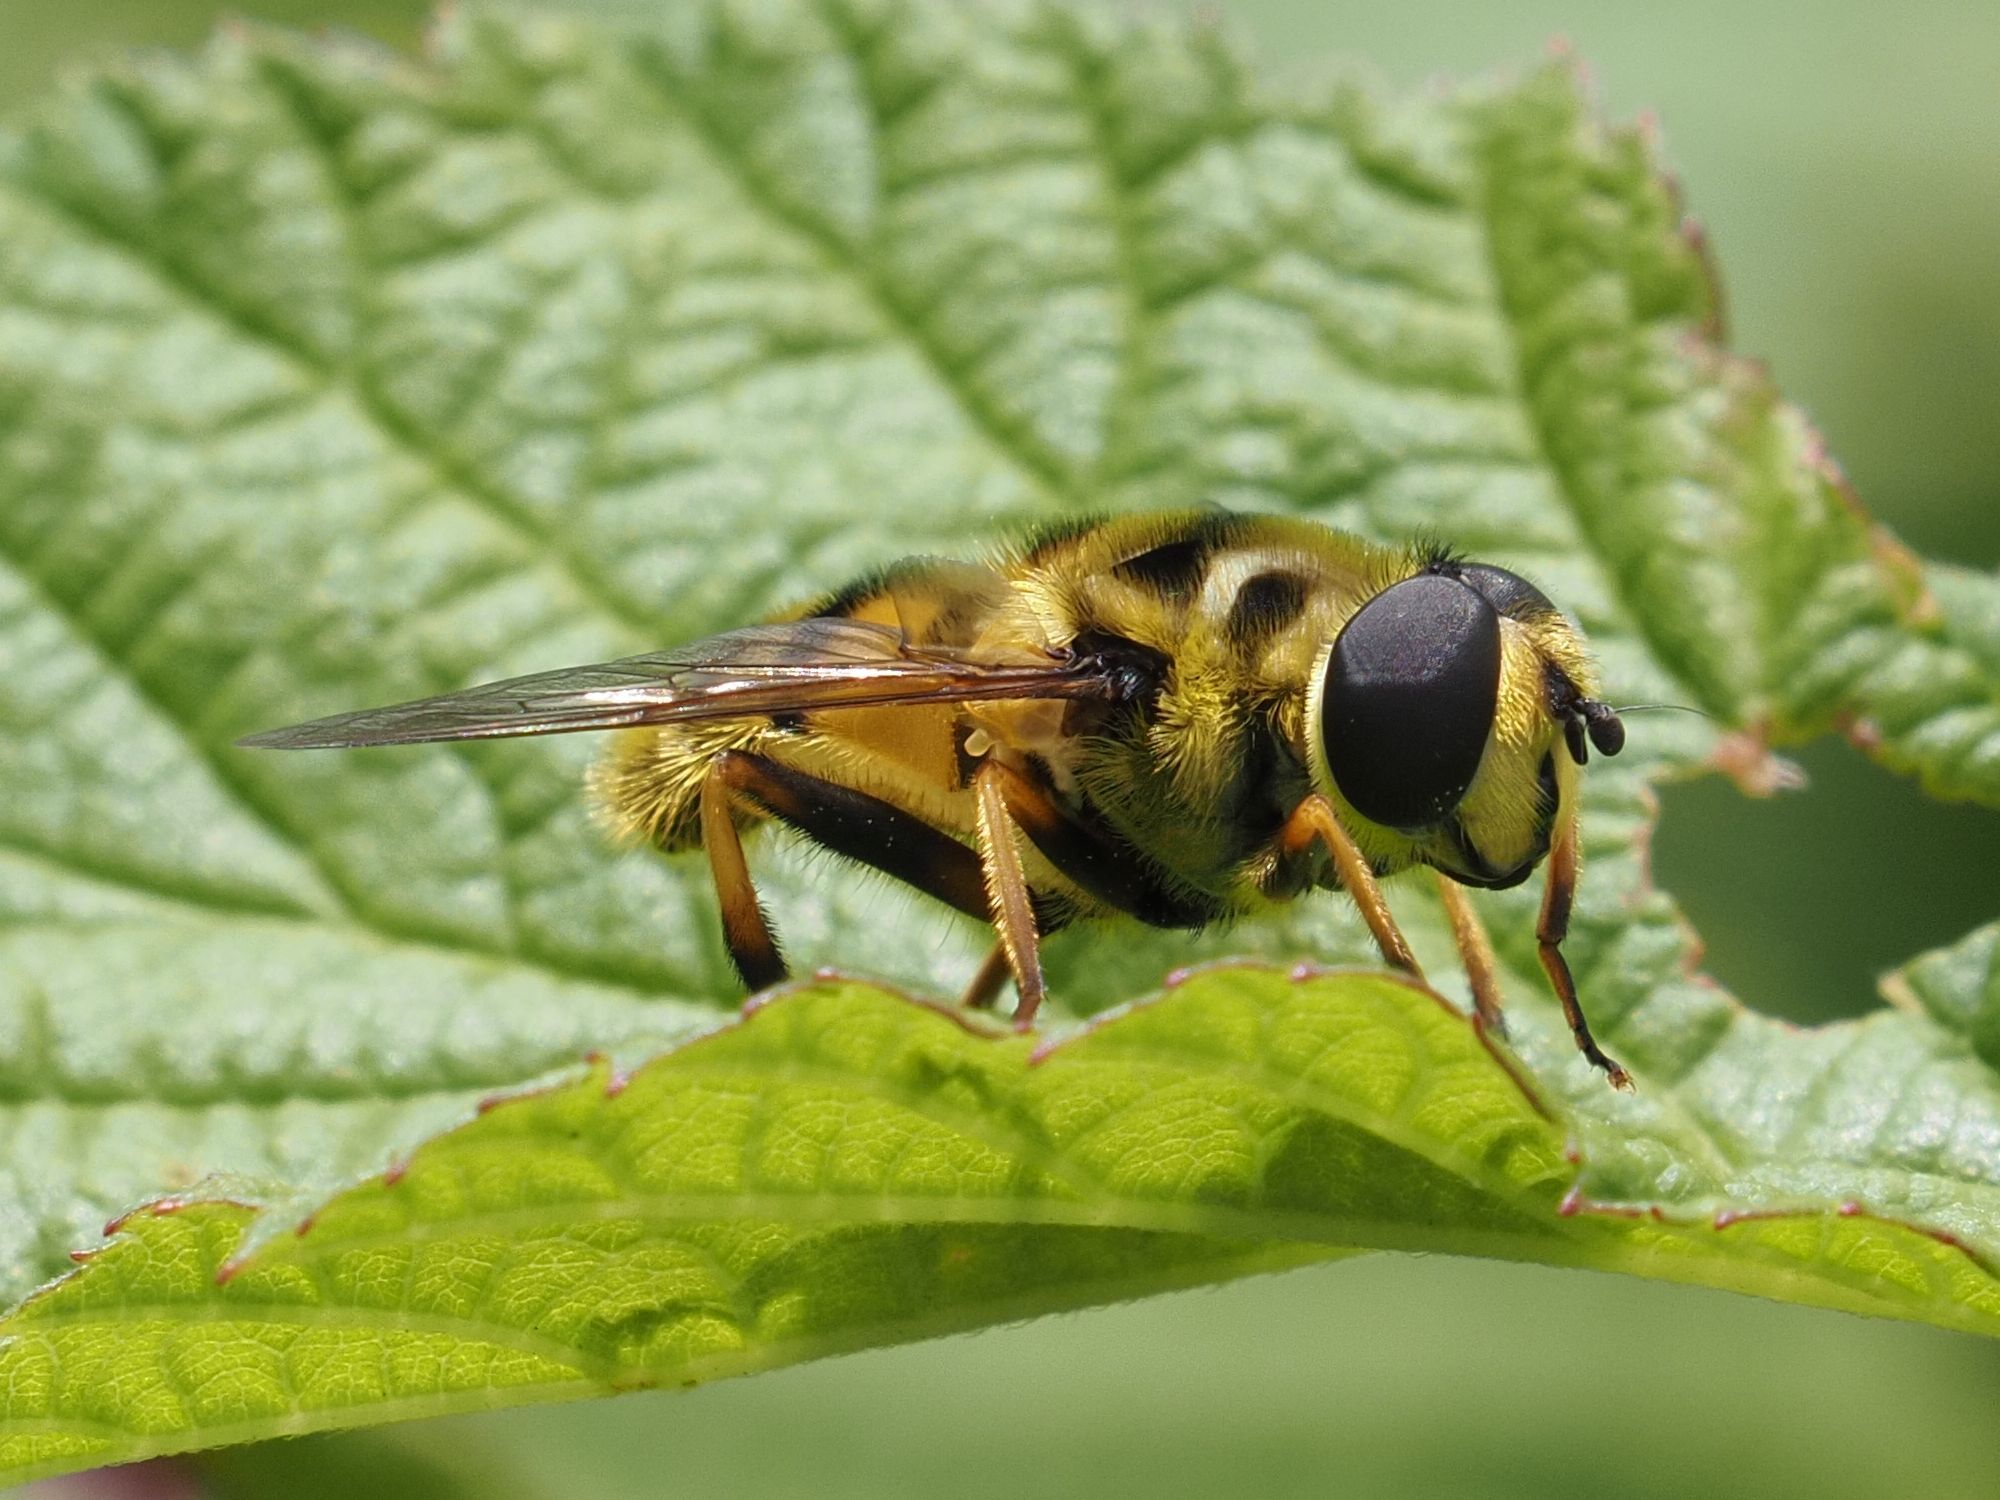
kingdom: Animalia
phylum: Arthropoda
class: Insecta
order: Diptera
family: Syrphidae
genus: Myathropa
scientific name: Myathropa florea
